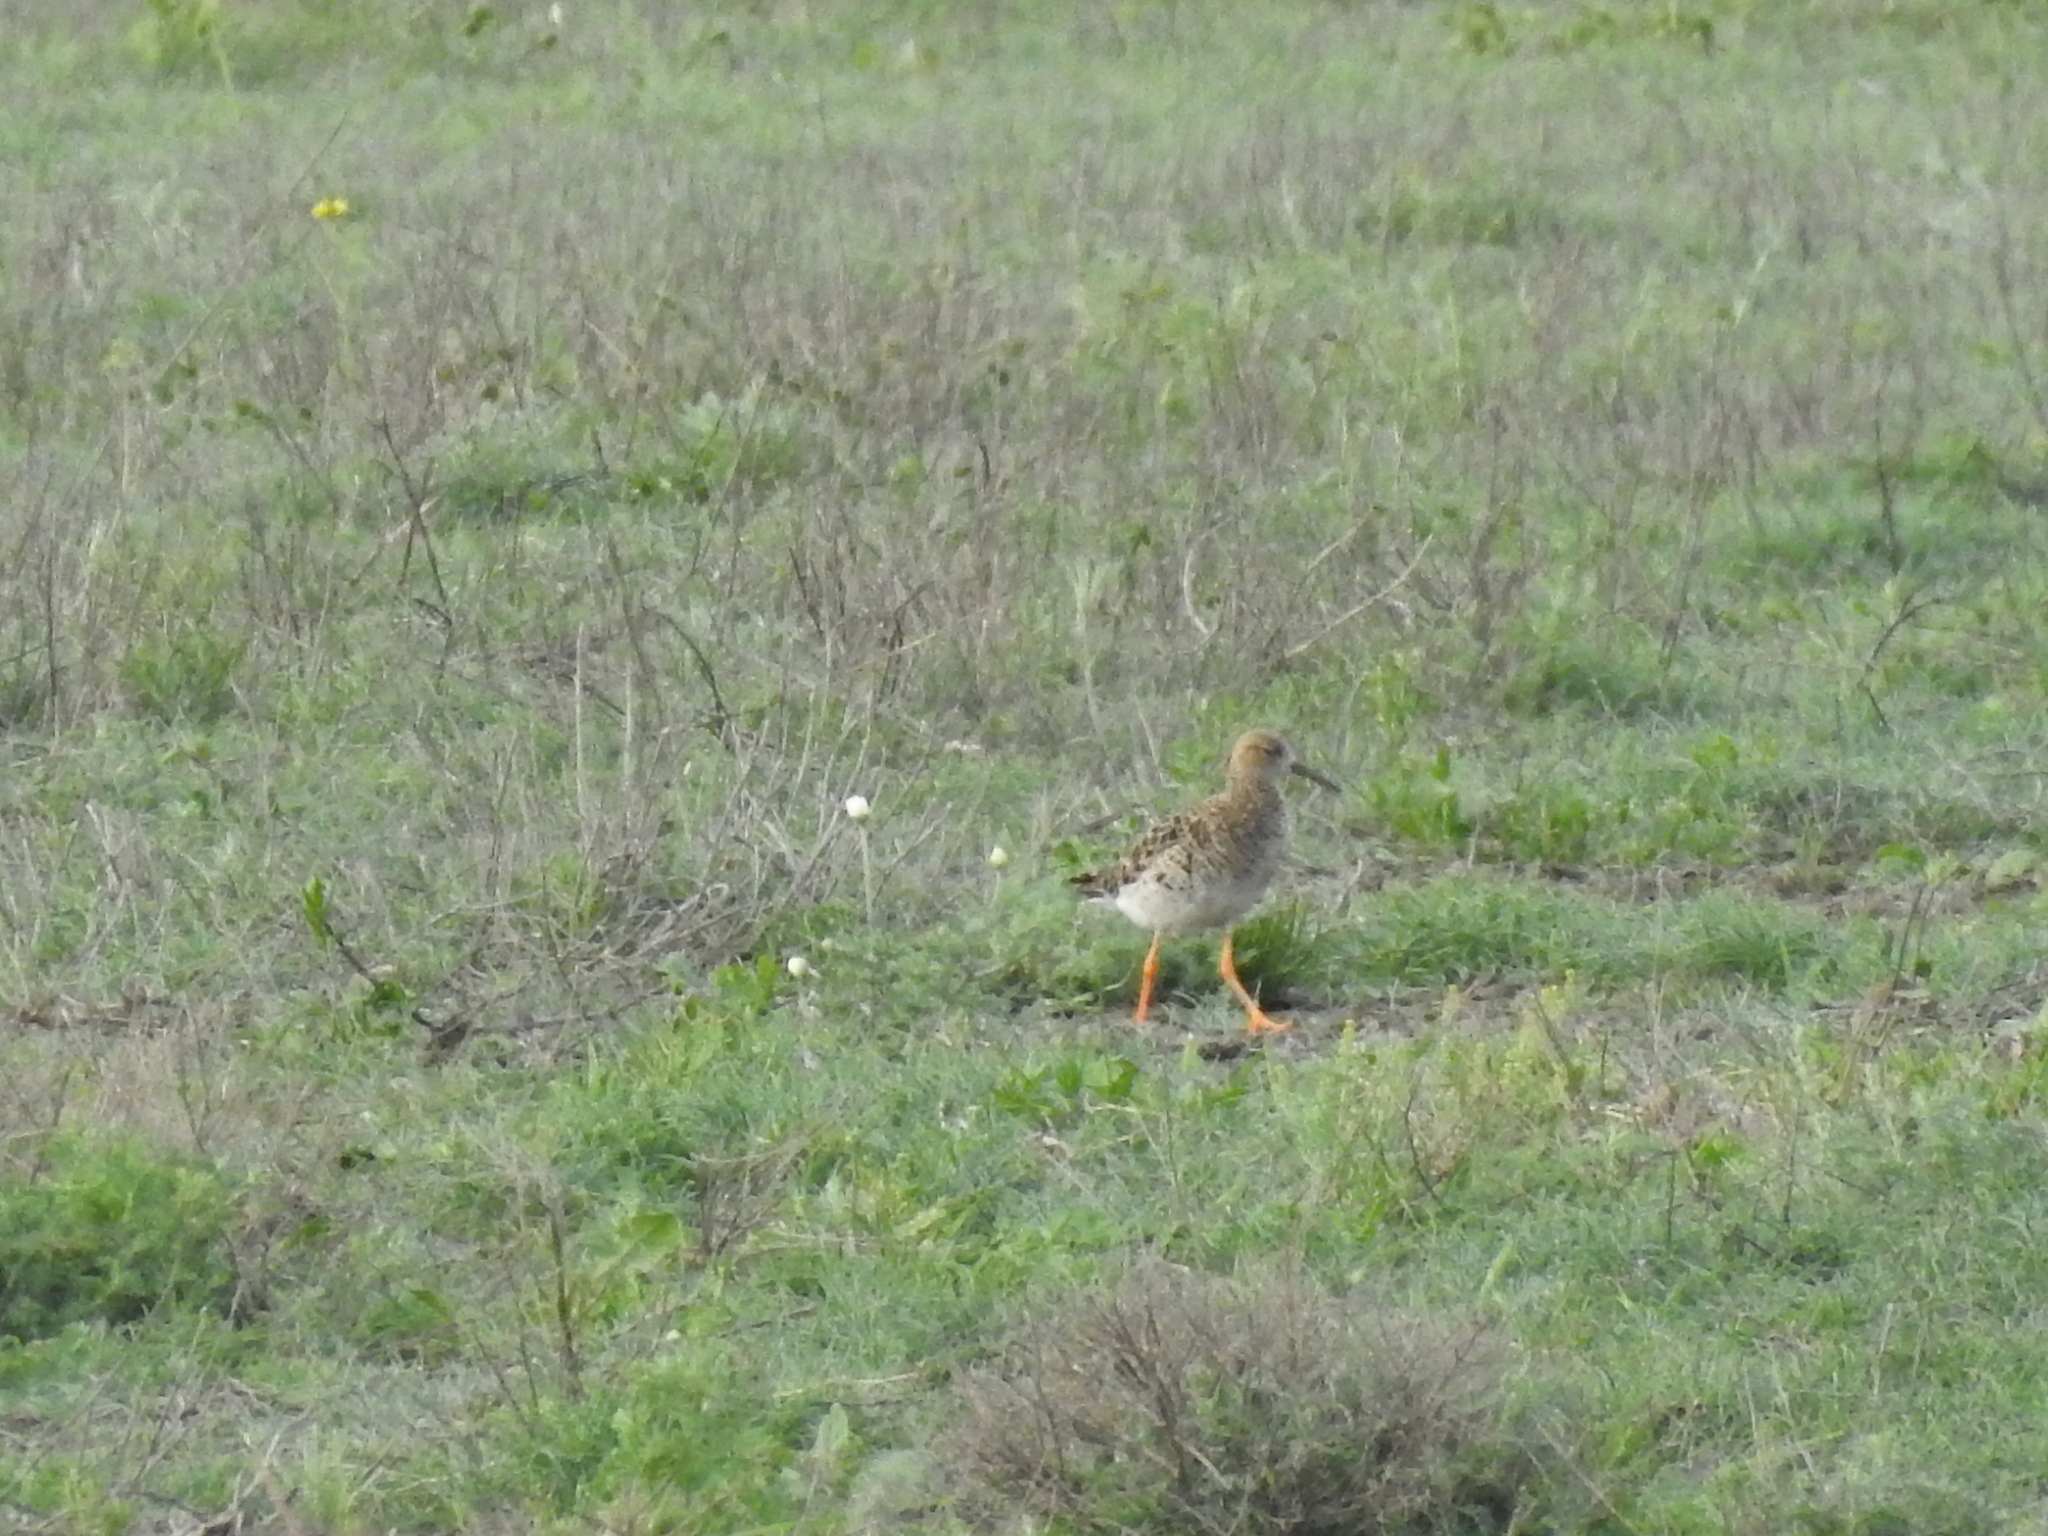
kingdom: Animalia
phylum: Chordata
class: Aves
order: Charadriiformes
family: Scolopacidae
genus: Calidris
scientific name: Calidris pugnax
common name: Ruff
